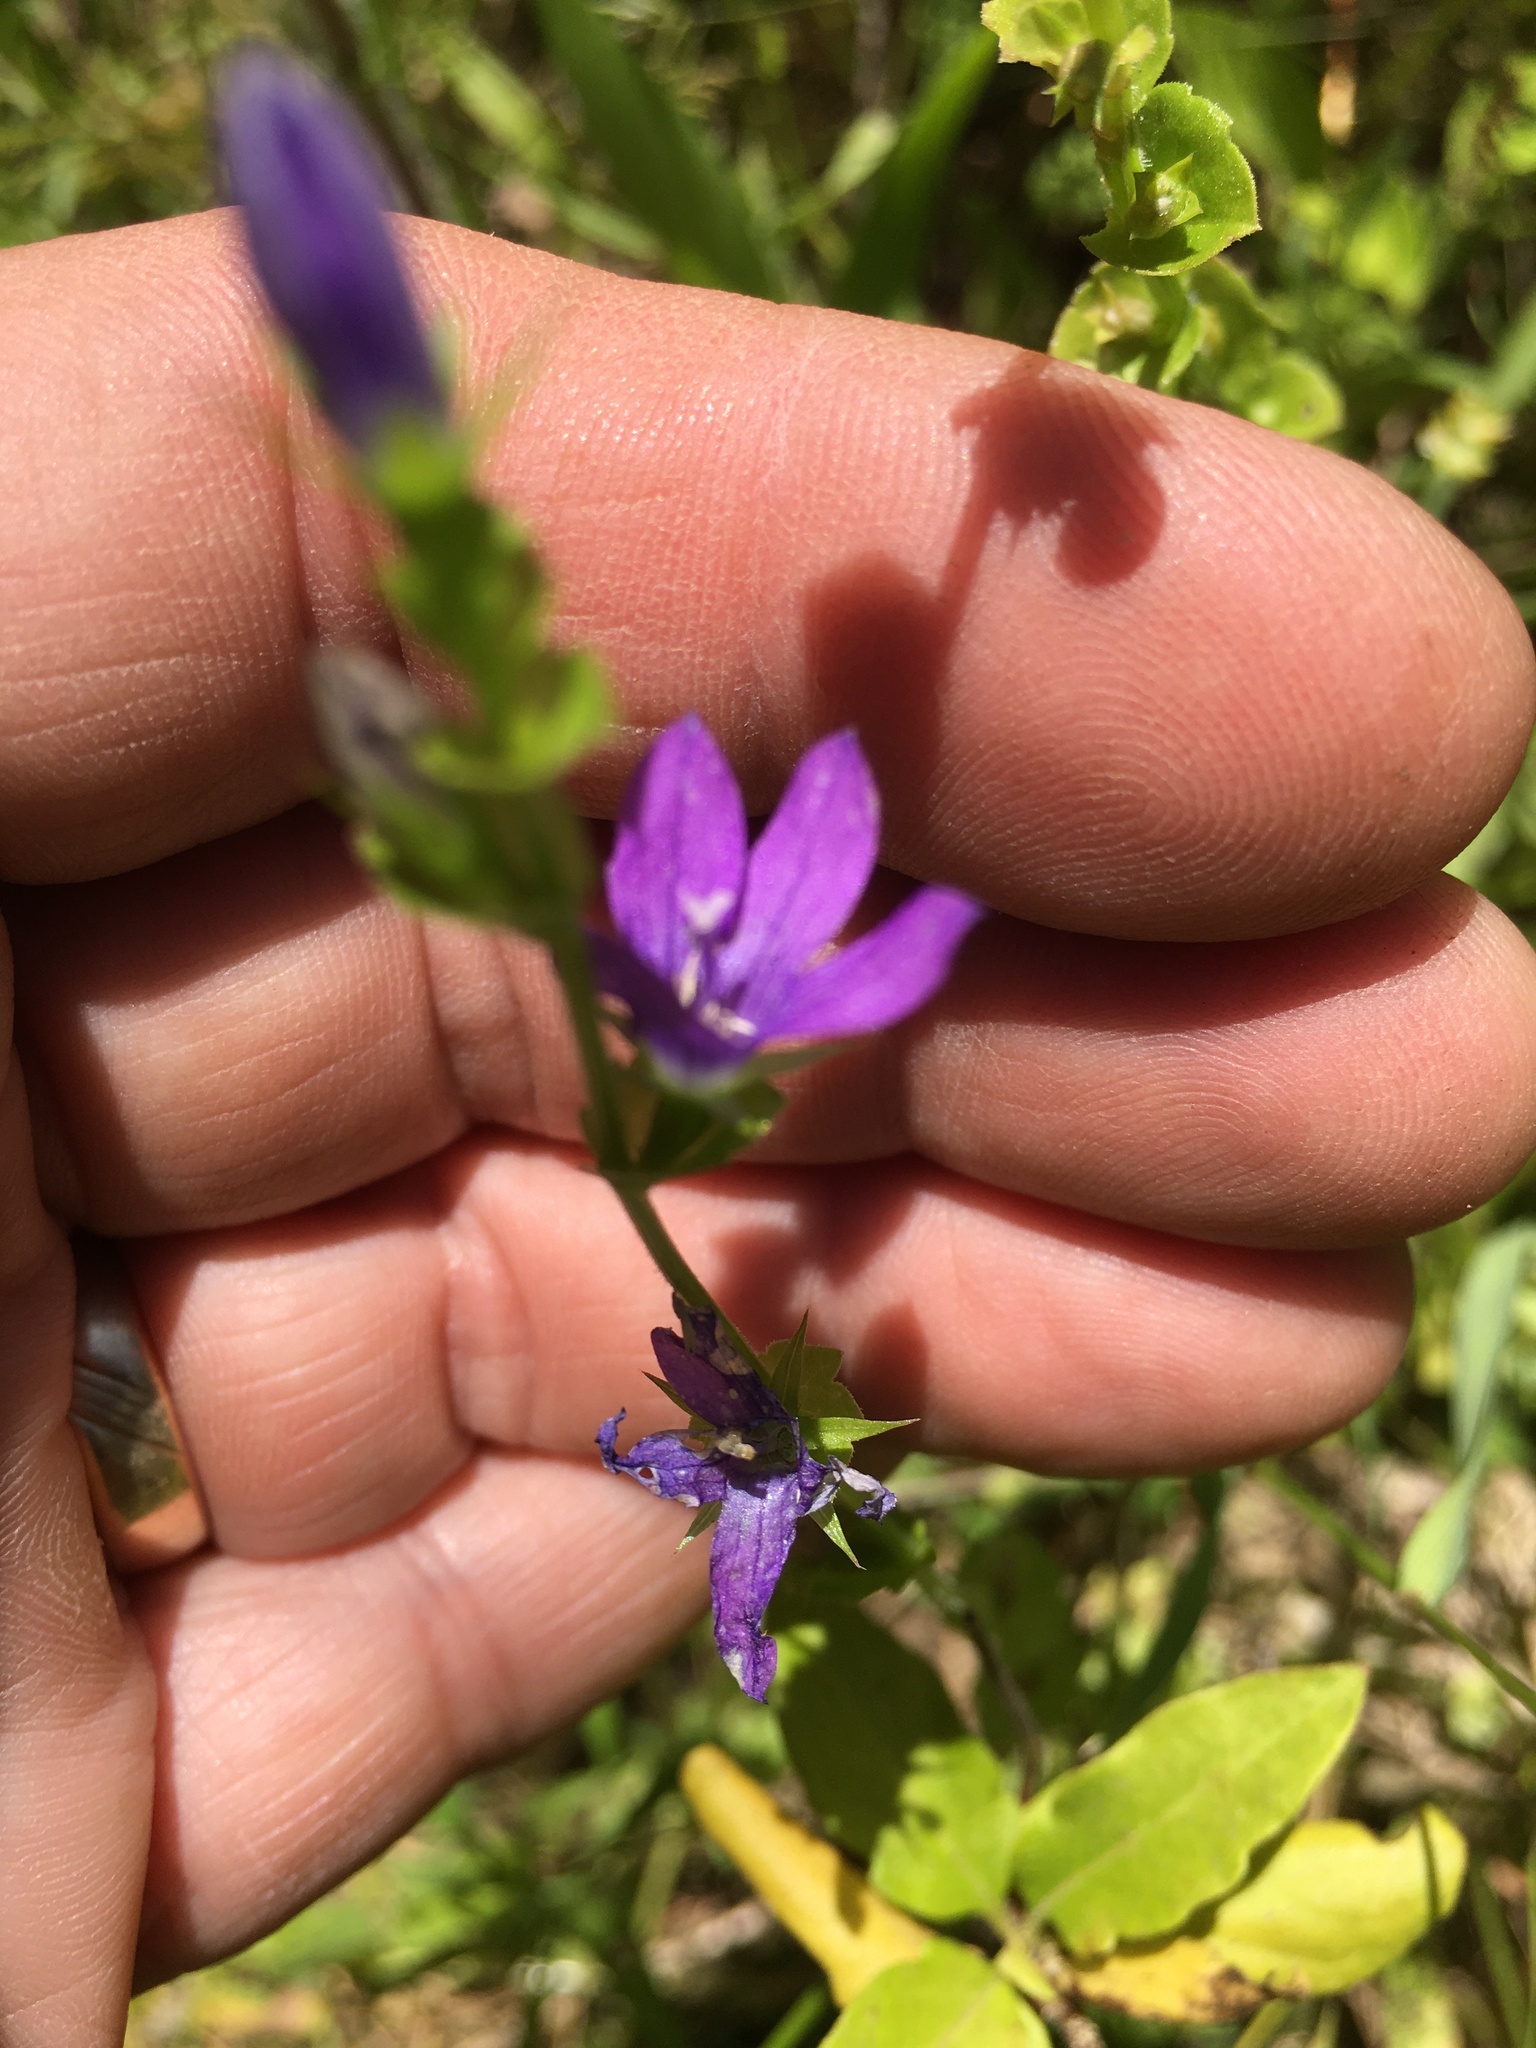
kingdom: Plantae
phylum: Tracheophyta
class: Magnoliopsida
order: Asterales
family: Campanulaceae
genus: Triodanis
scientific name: Triodanis perfoliata
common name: Clasping venus' looking-glass
